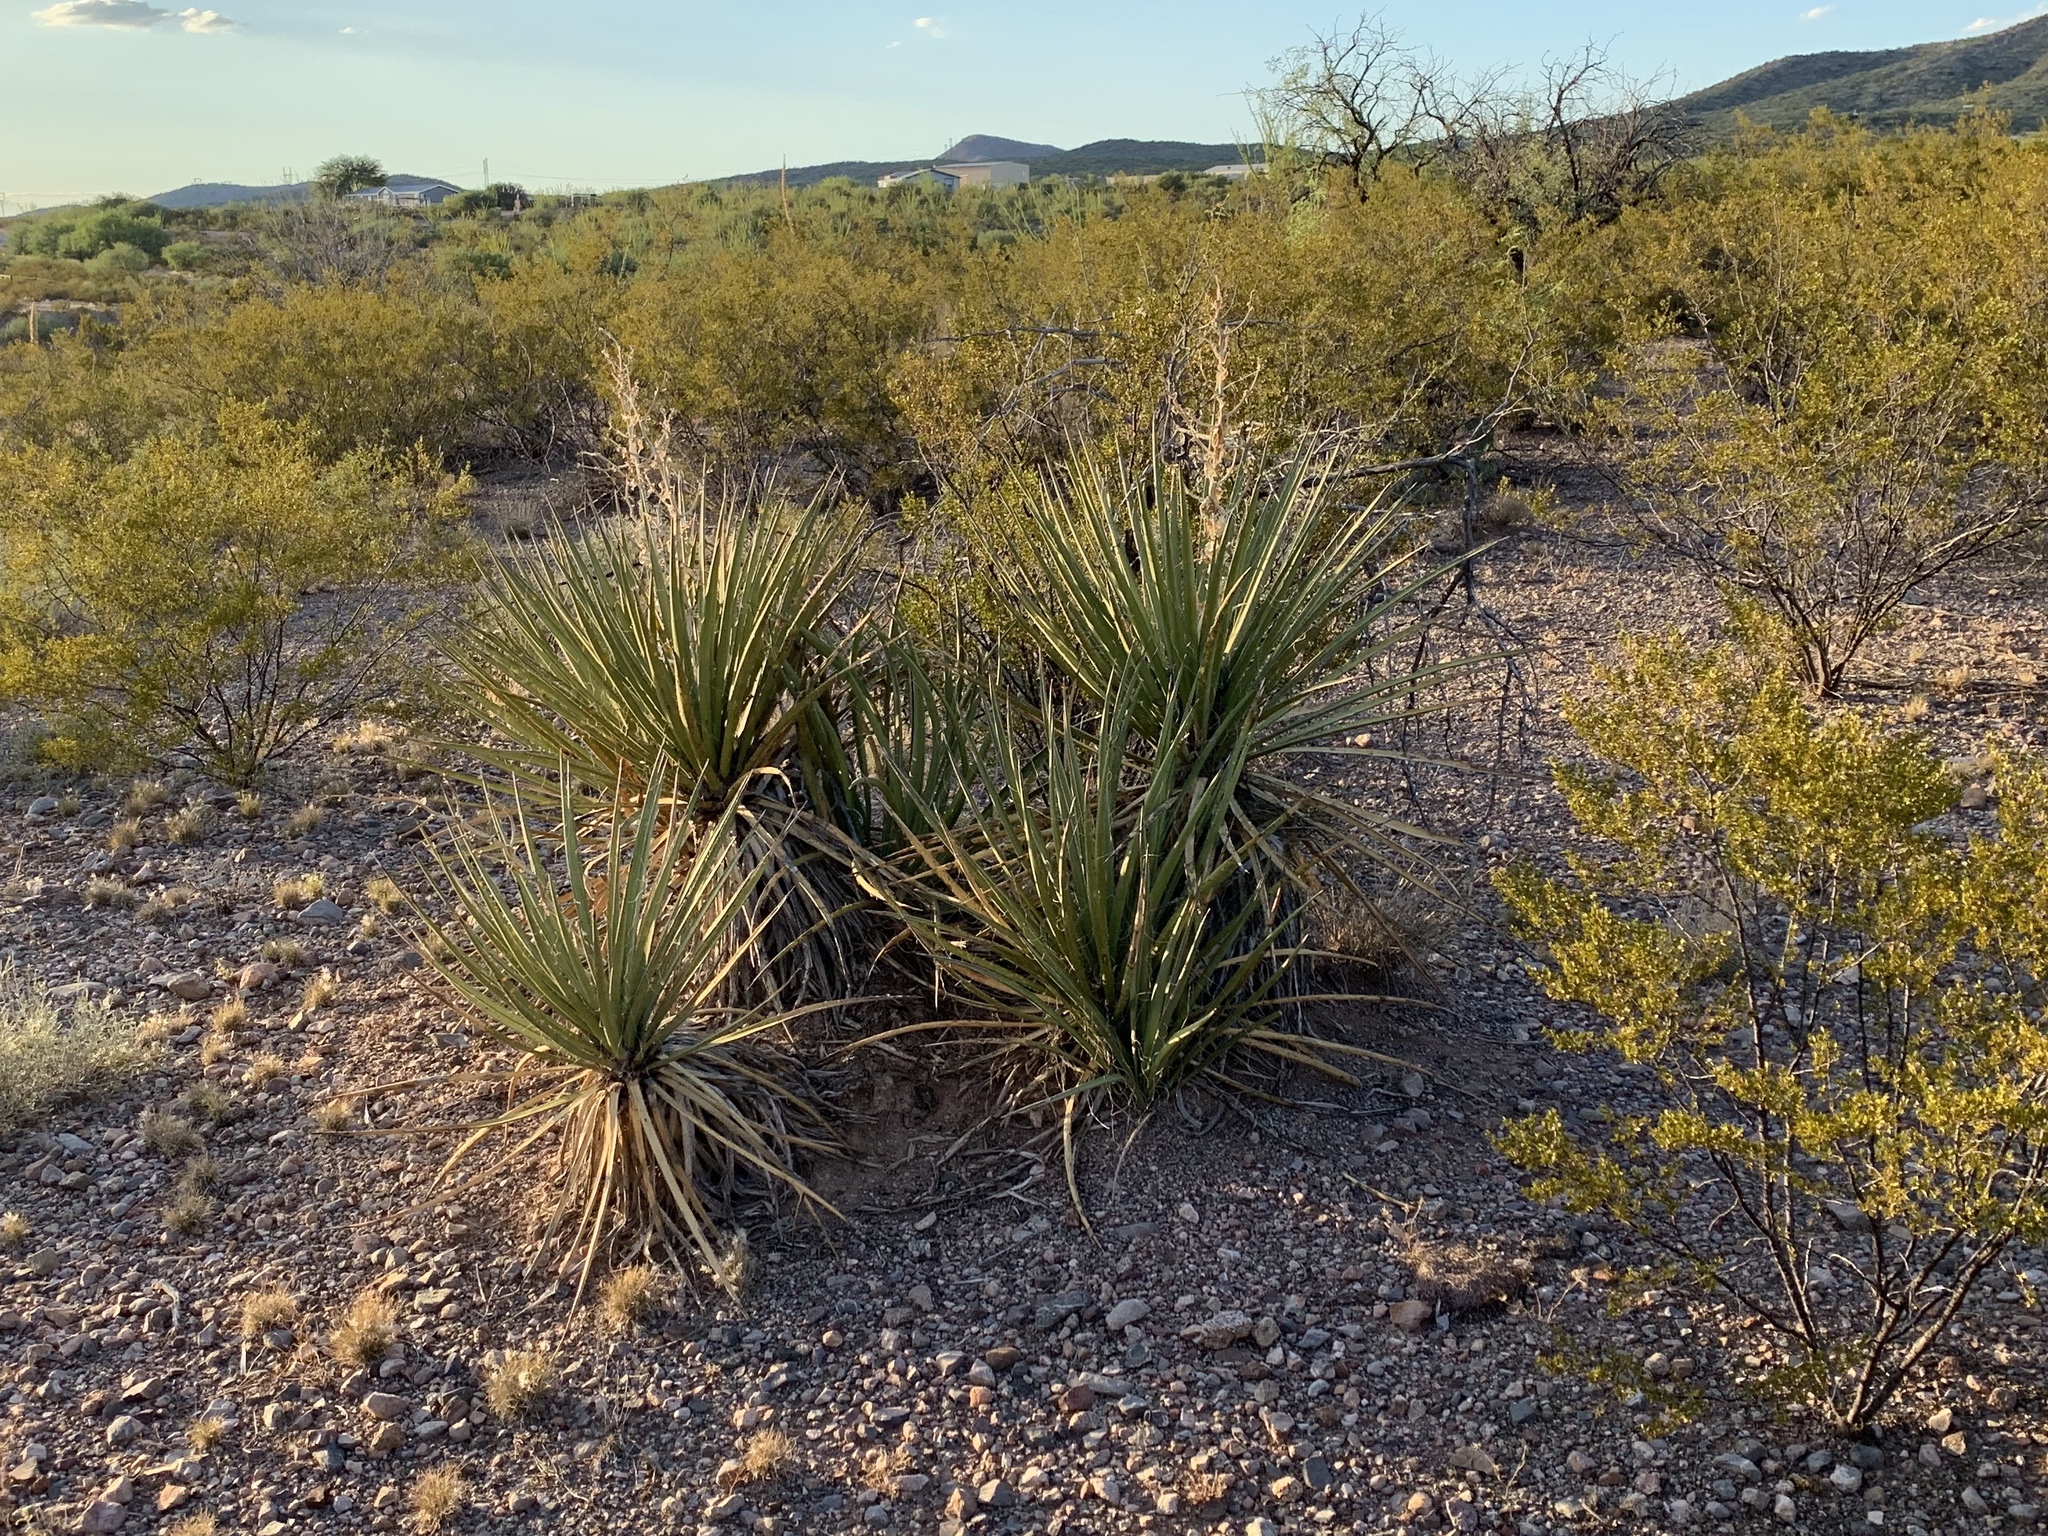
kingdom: Plantae
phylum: Tracheophyta
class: Liliopsida
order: Asparagales
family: Asparagaceae
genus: Yucca
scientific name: Yucca baccata
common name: Banana yucca
